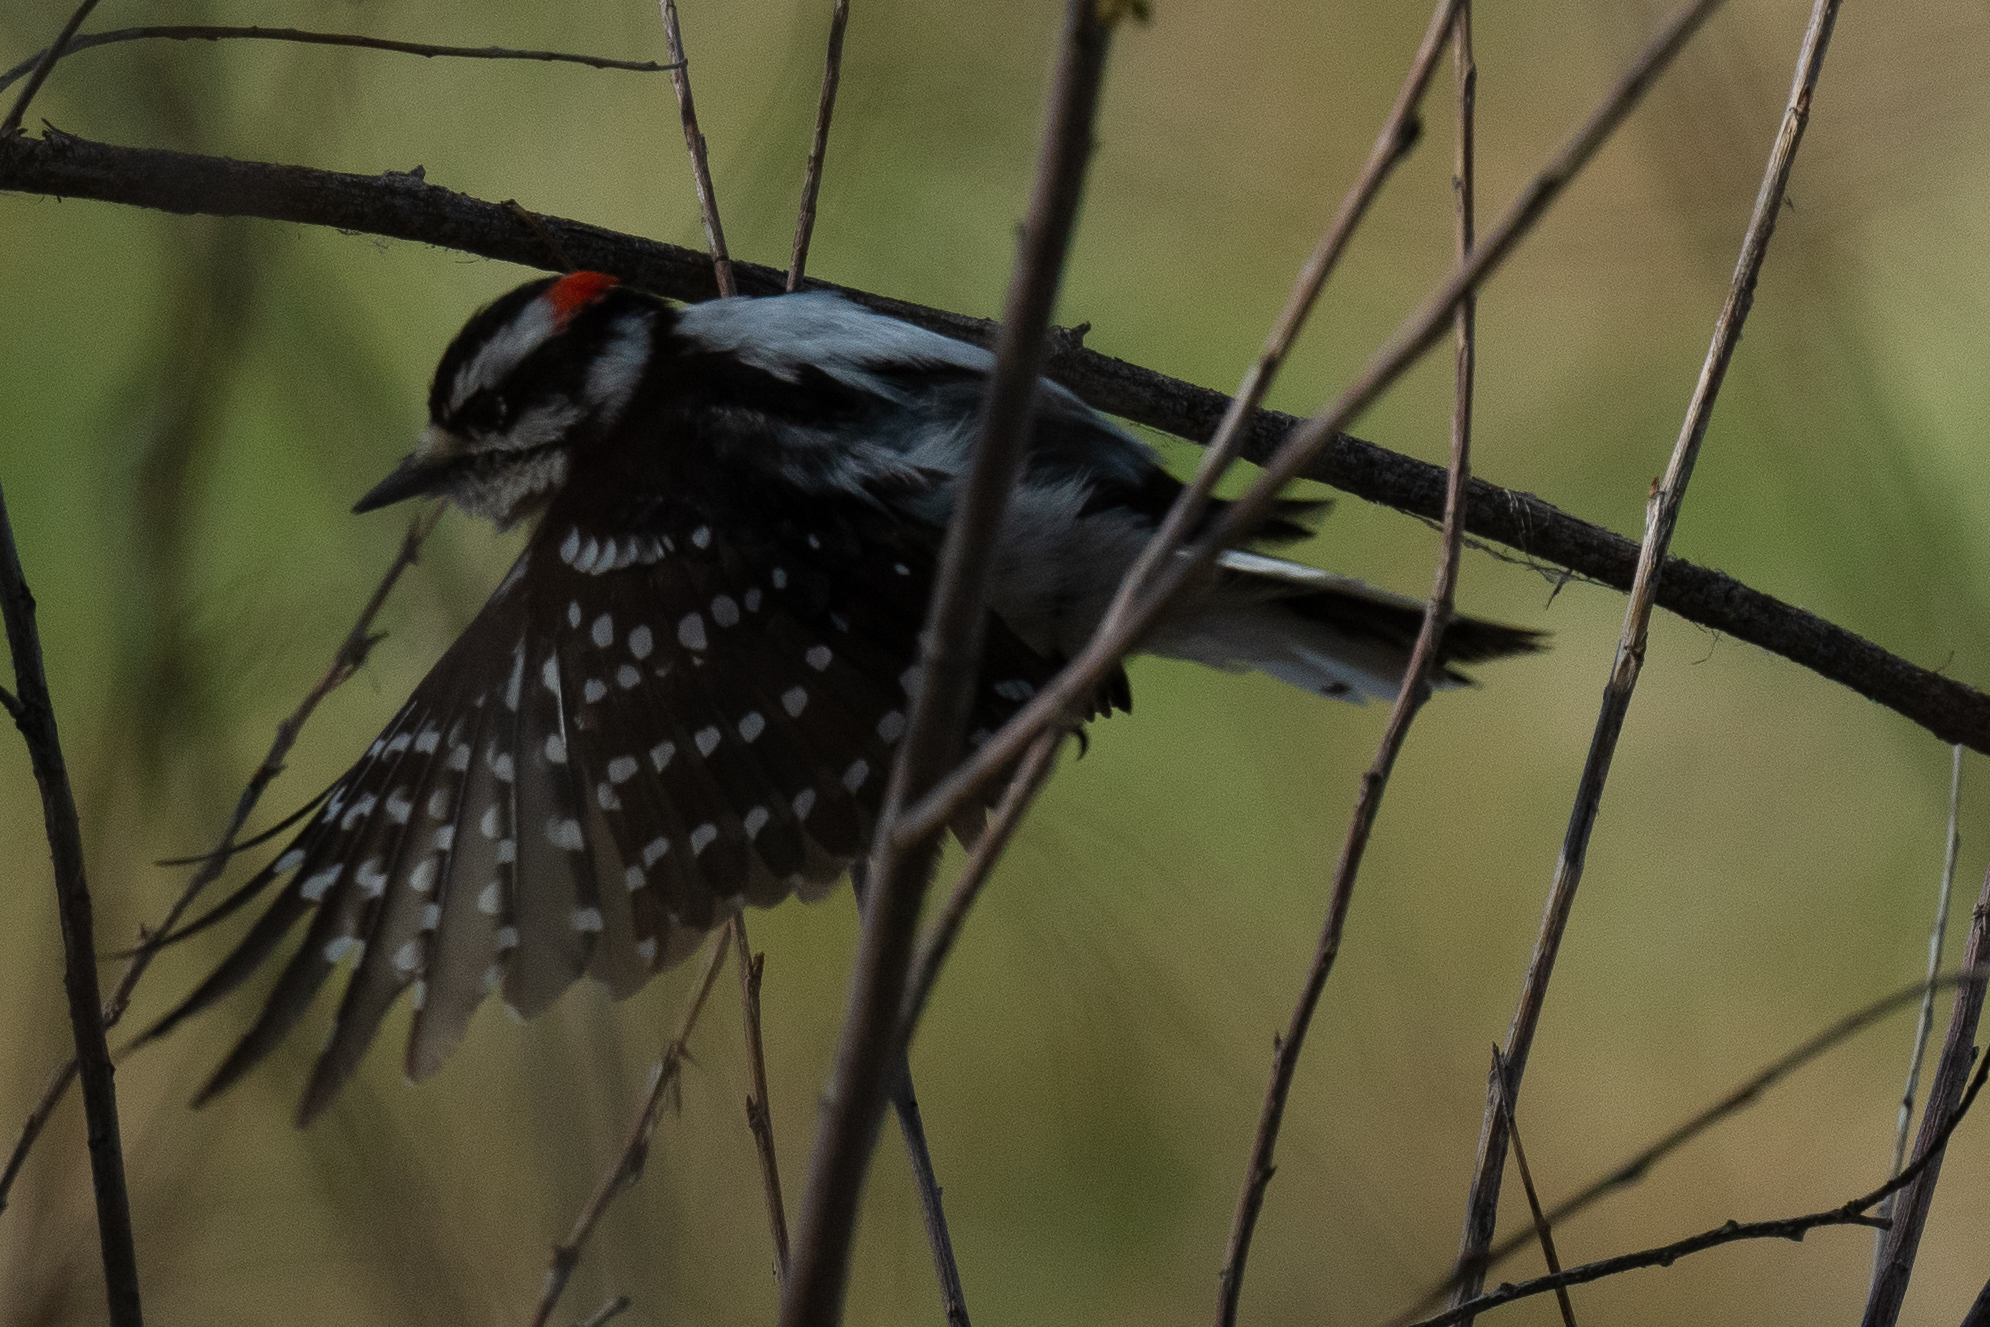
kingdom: Animalia
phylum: Chordata
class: Aves
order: Piciformes
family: Picidae
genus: Dryobates
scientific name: Dryobates pubescens
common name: Downy woodpecker
